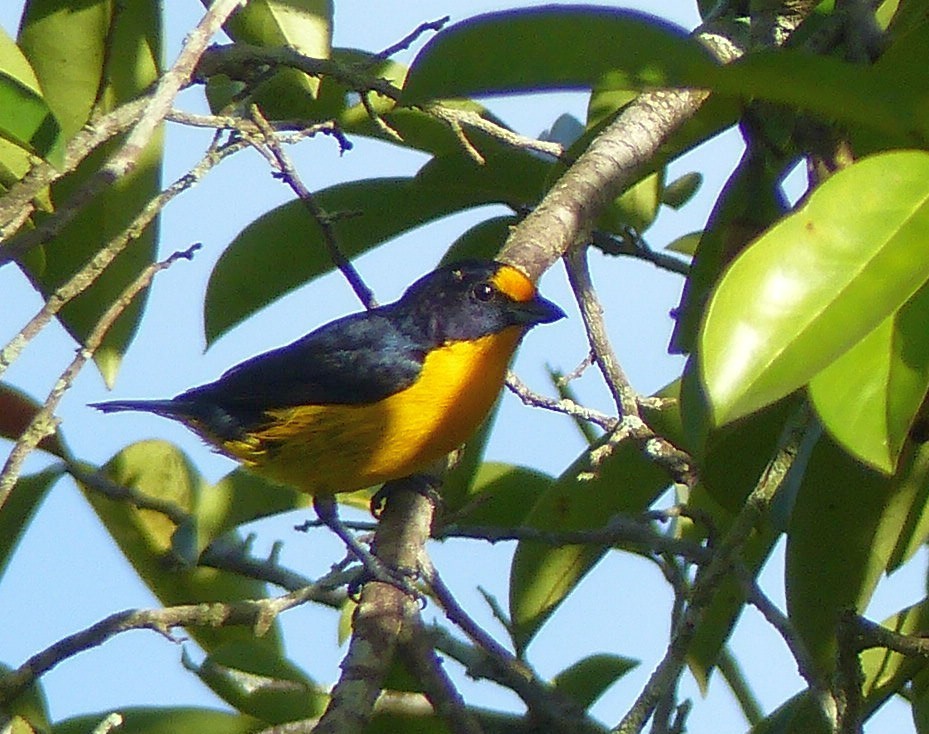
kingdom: Animalia
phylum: Chordata
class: Aves
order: Passeriformes
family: Fringillidae
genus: Euphonia
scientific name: Euphonia violacea
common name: Violaceous euphonia
